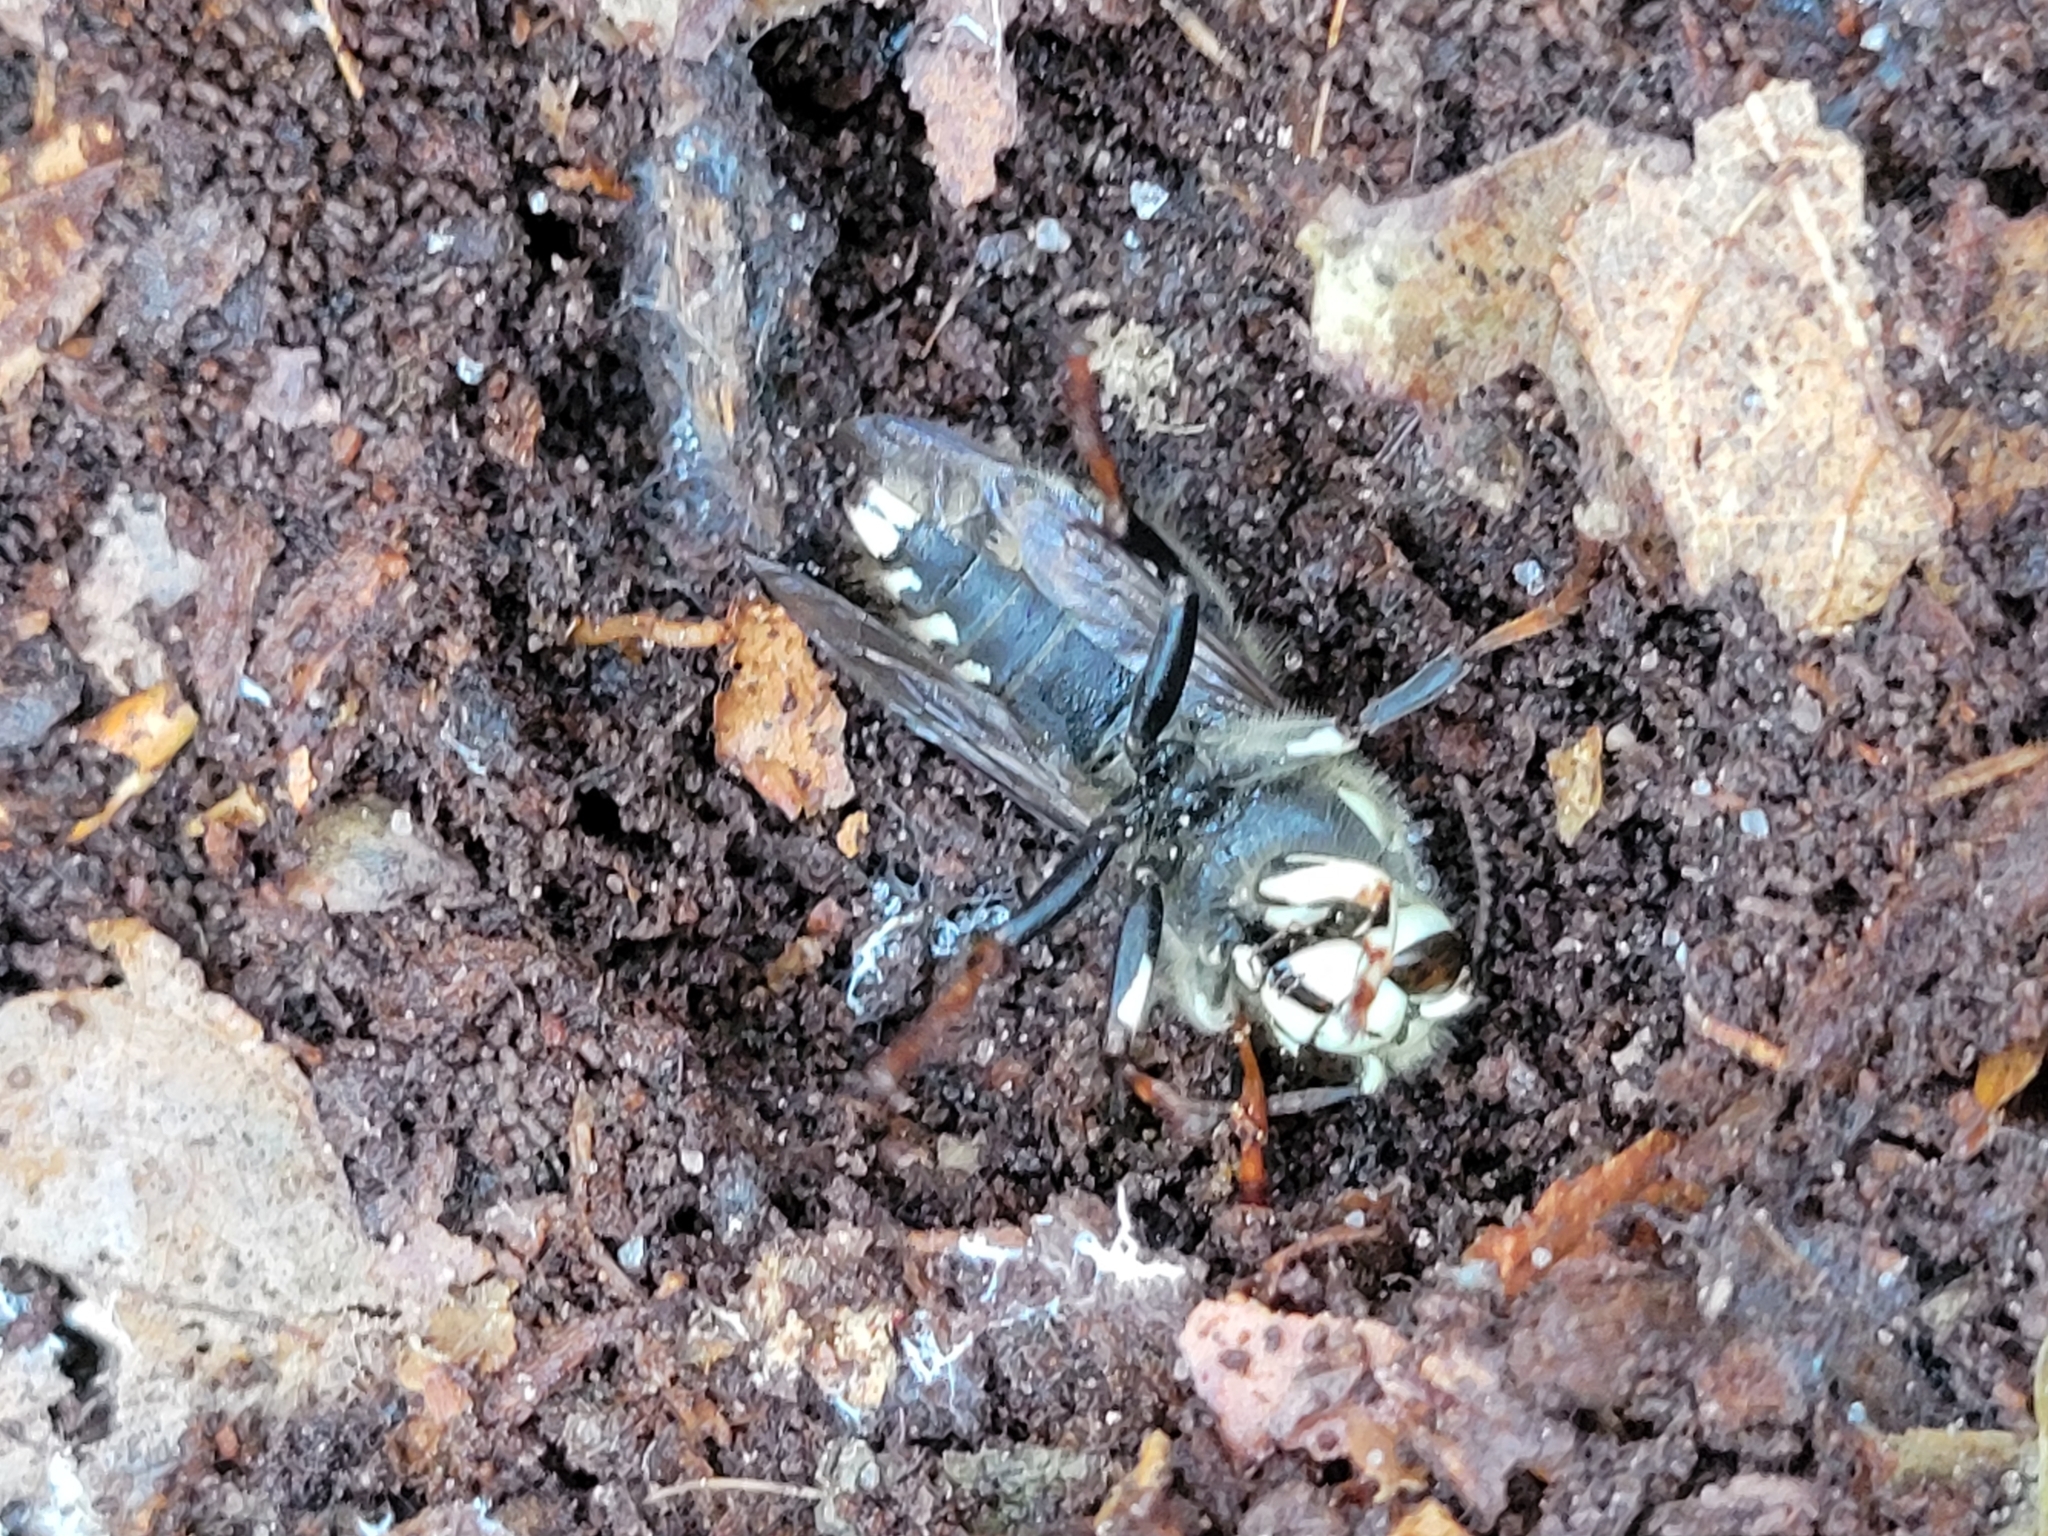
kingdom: Animalia
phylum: Arthropoda
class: Insecta
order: Hymenoptera
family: Vespidae
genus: Dolichovespula
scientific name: Dolichovespula maculata
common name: Bald-faced hornet
